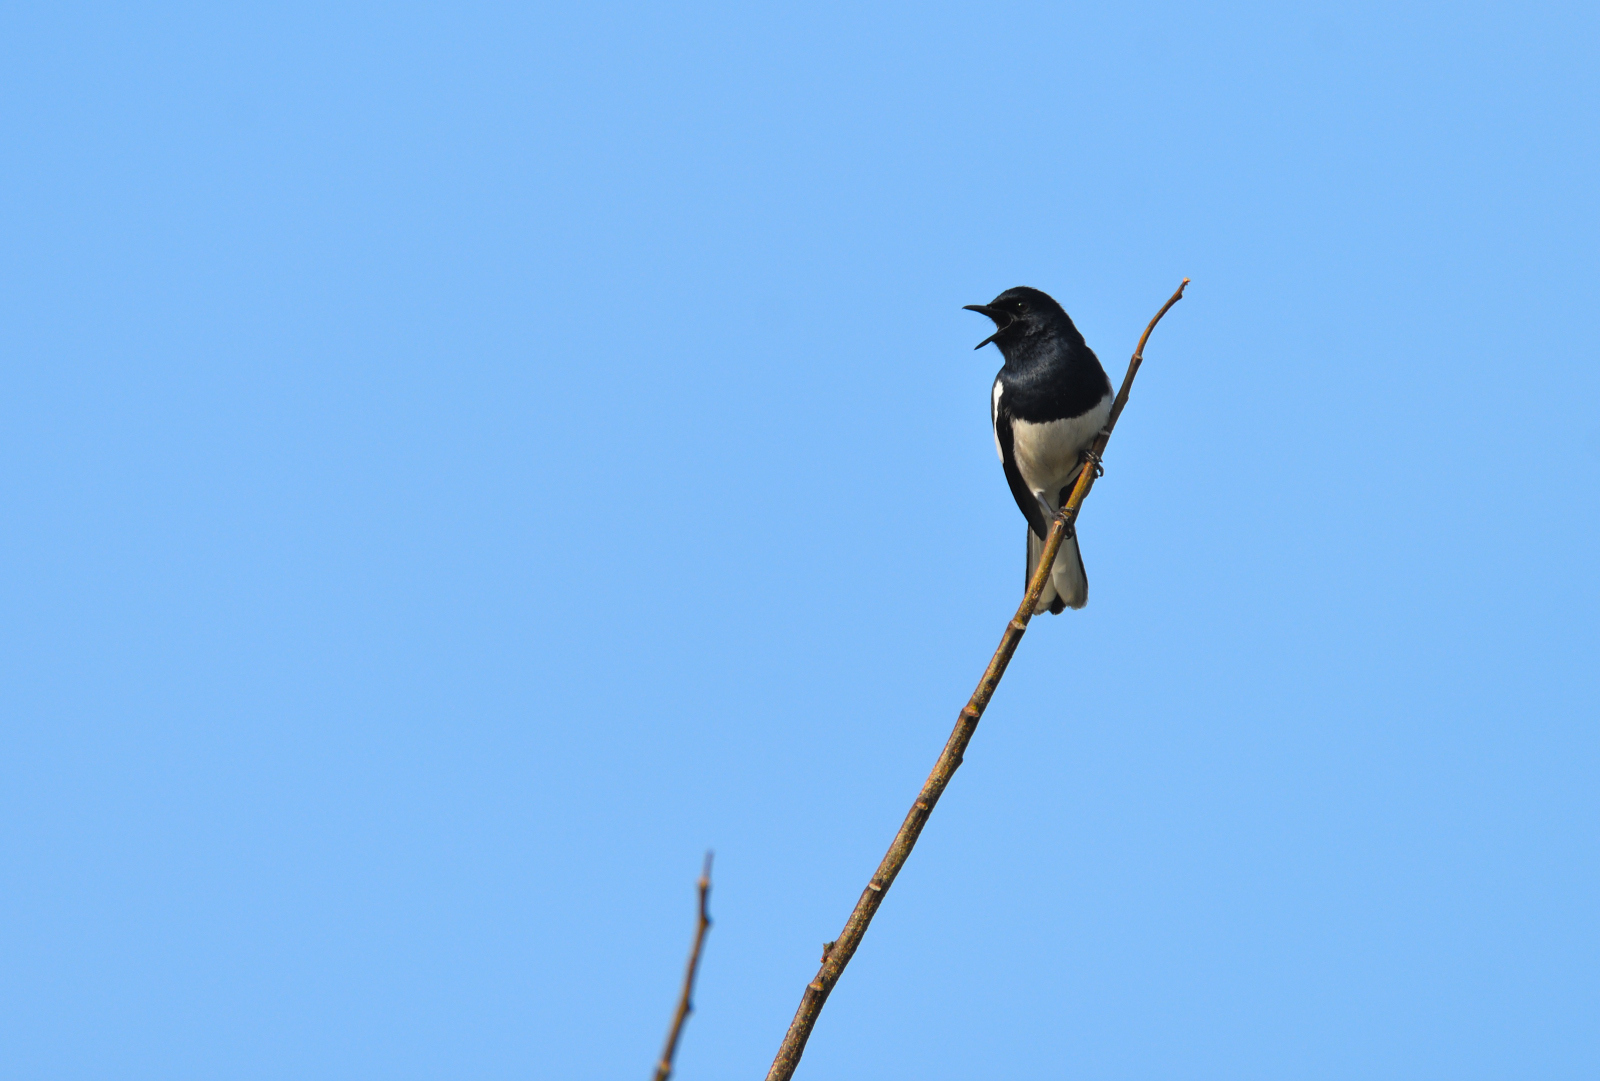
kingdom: Animalia
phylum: Chordata
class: Aves
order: Passeriformes
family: Muscicapidae
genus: Copsychus
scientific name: Copsychus saularis
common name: Oriental magpie-robin
